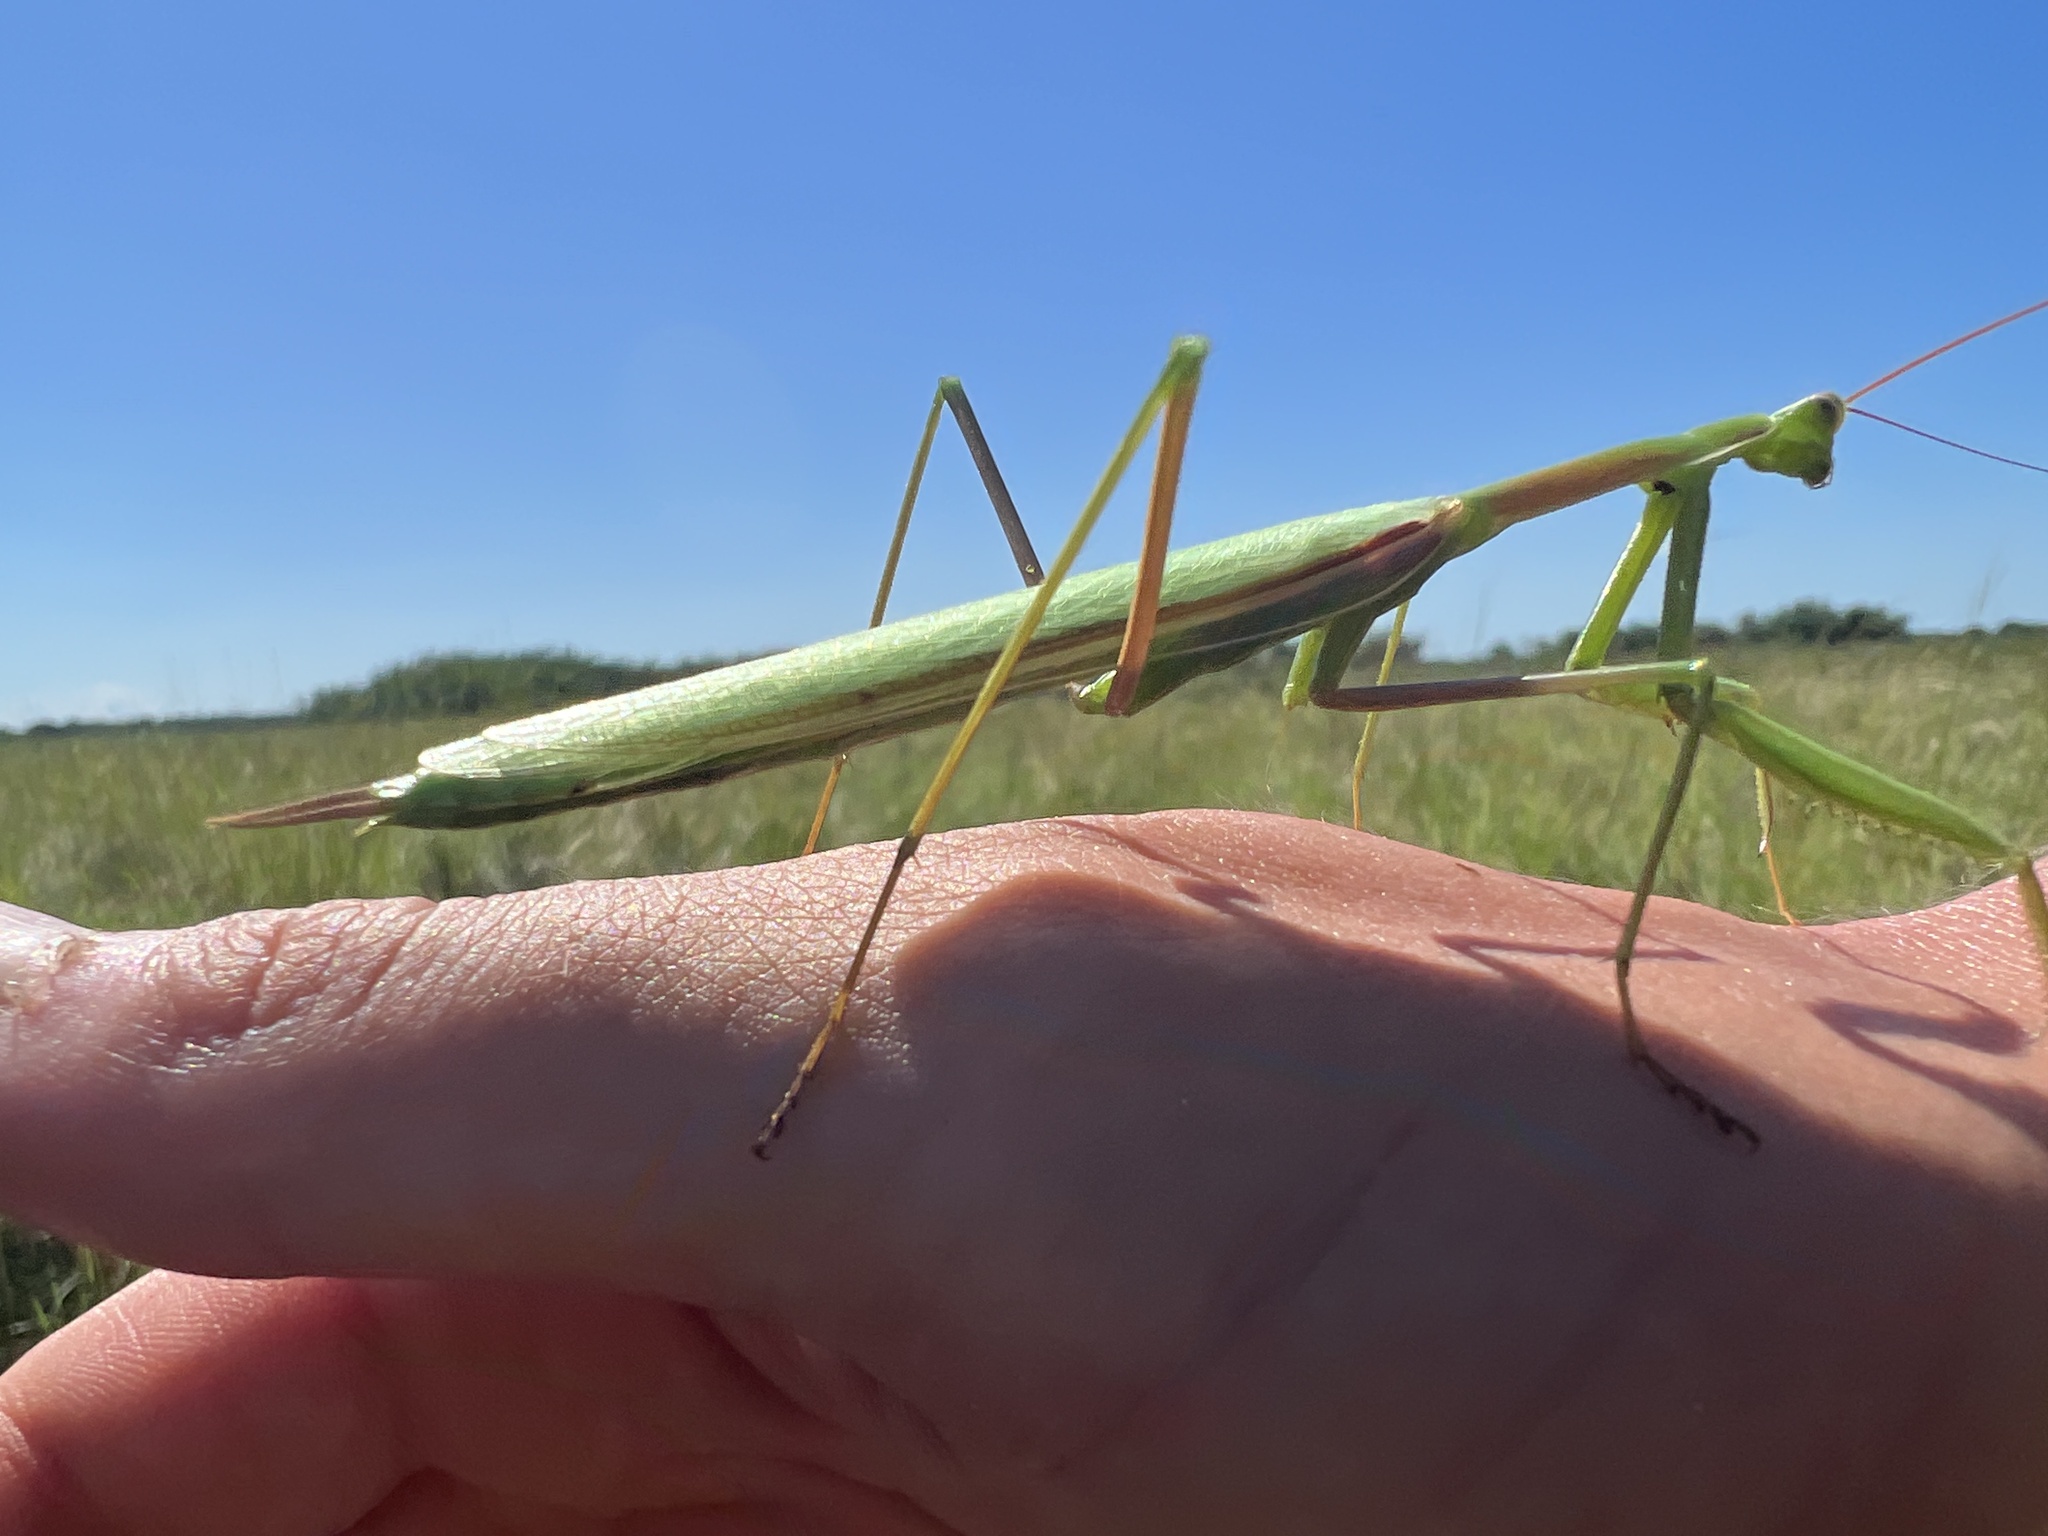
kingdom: Animalia
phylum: Arthropoda
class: Insecta
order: Mantodea
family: Coptopterygidae
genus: Coptopteryx
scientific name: Coptopteryx argentina
